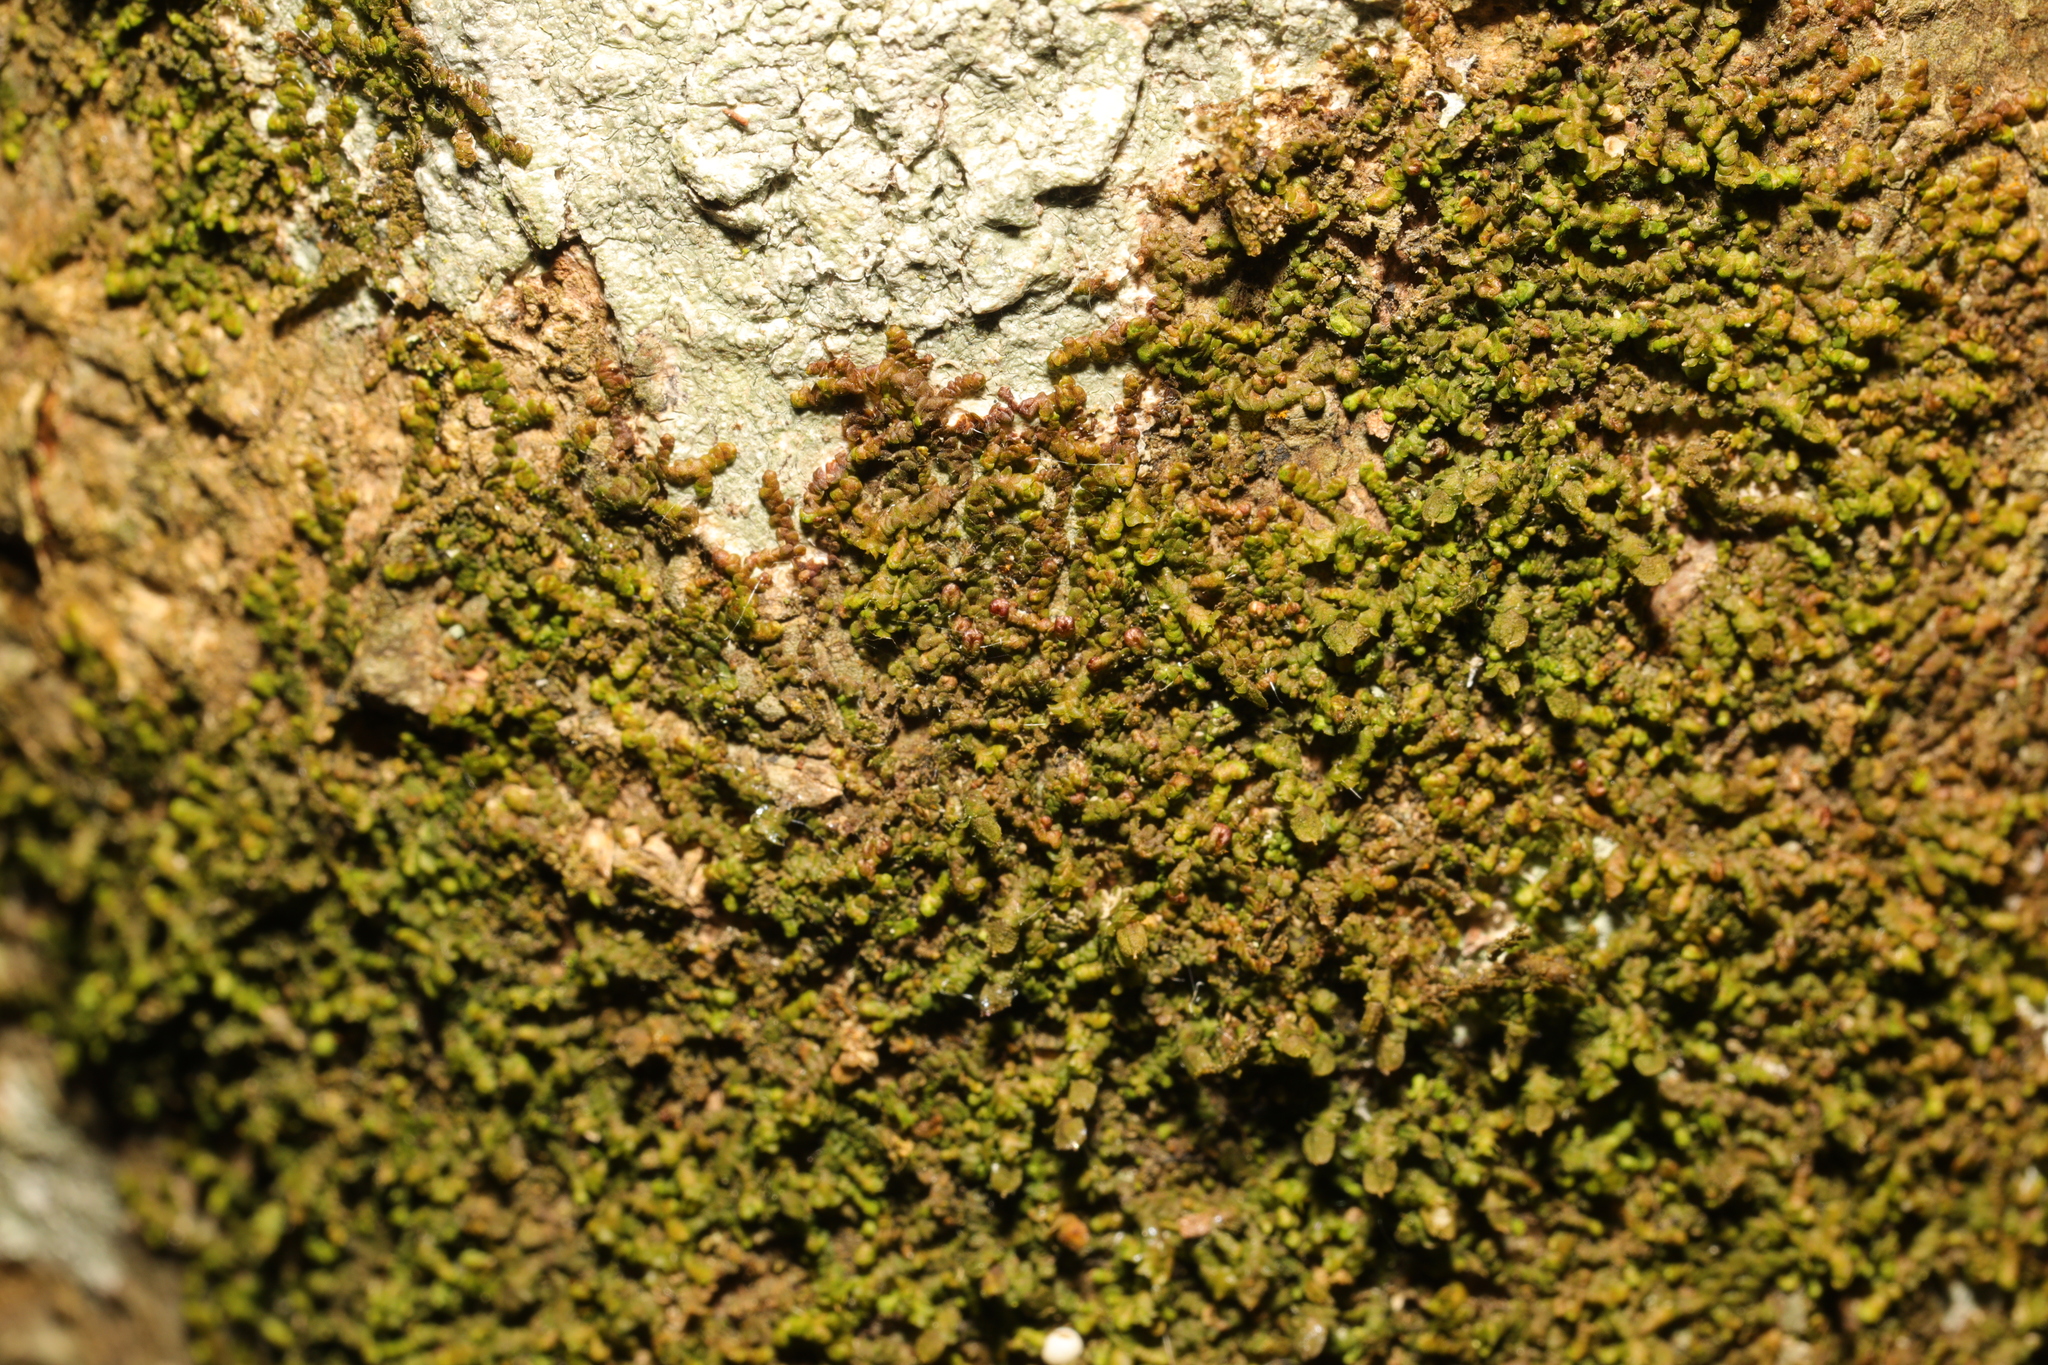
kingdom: Plantae
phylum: Marchantiophyta
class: Jungermanniopsida
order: Porellales
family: Frullaniaceae
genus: Frullania
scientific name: Frullania dilatata
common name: Dilated scalewort
